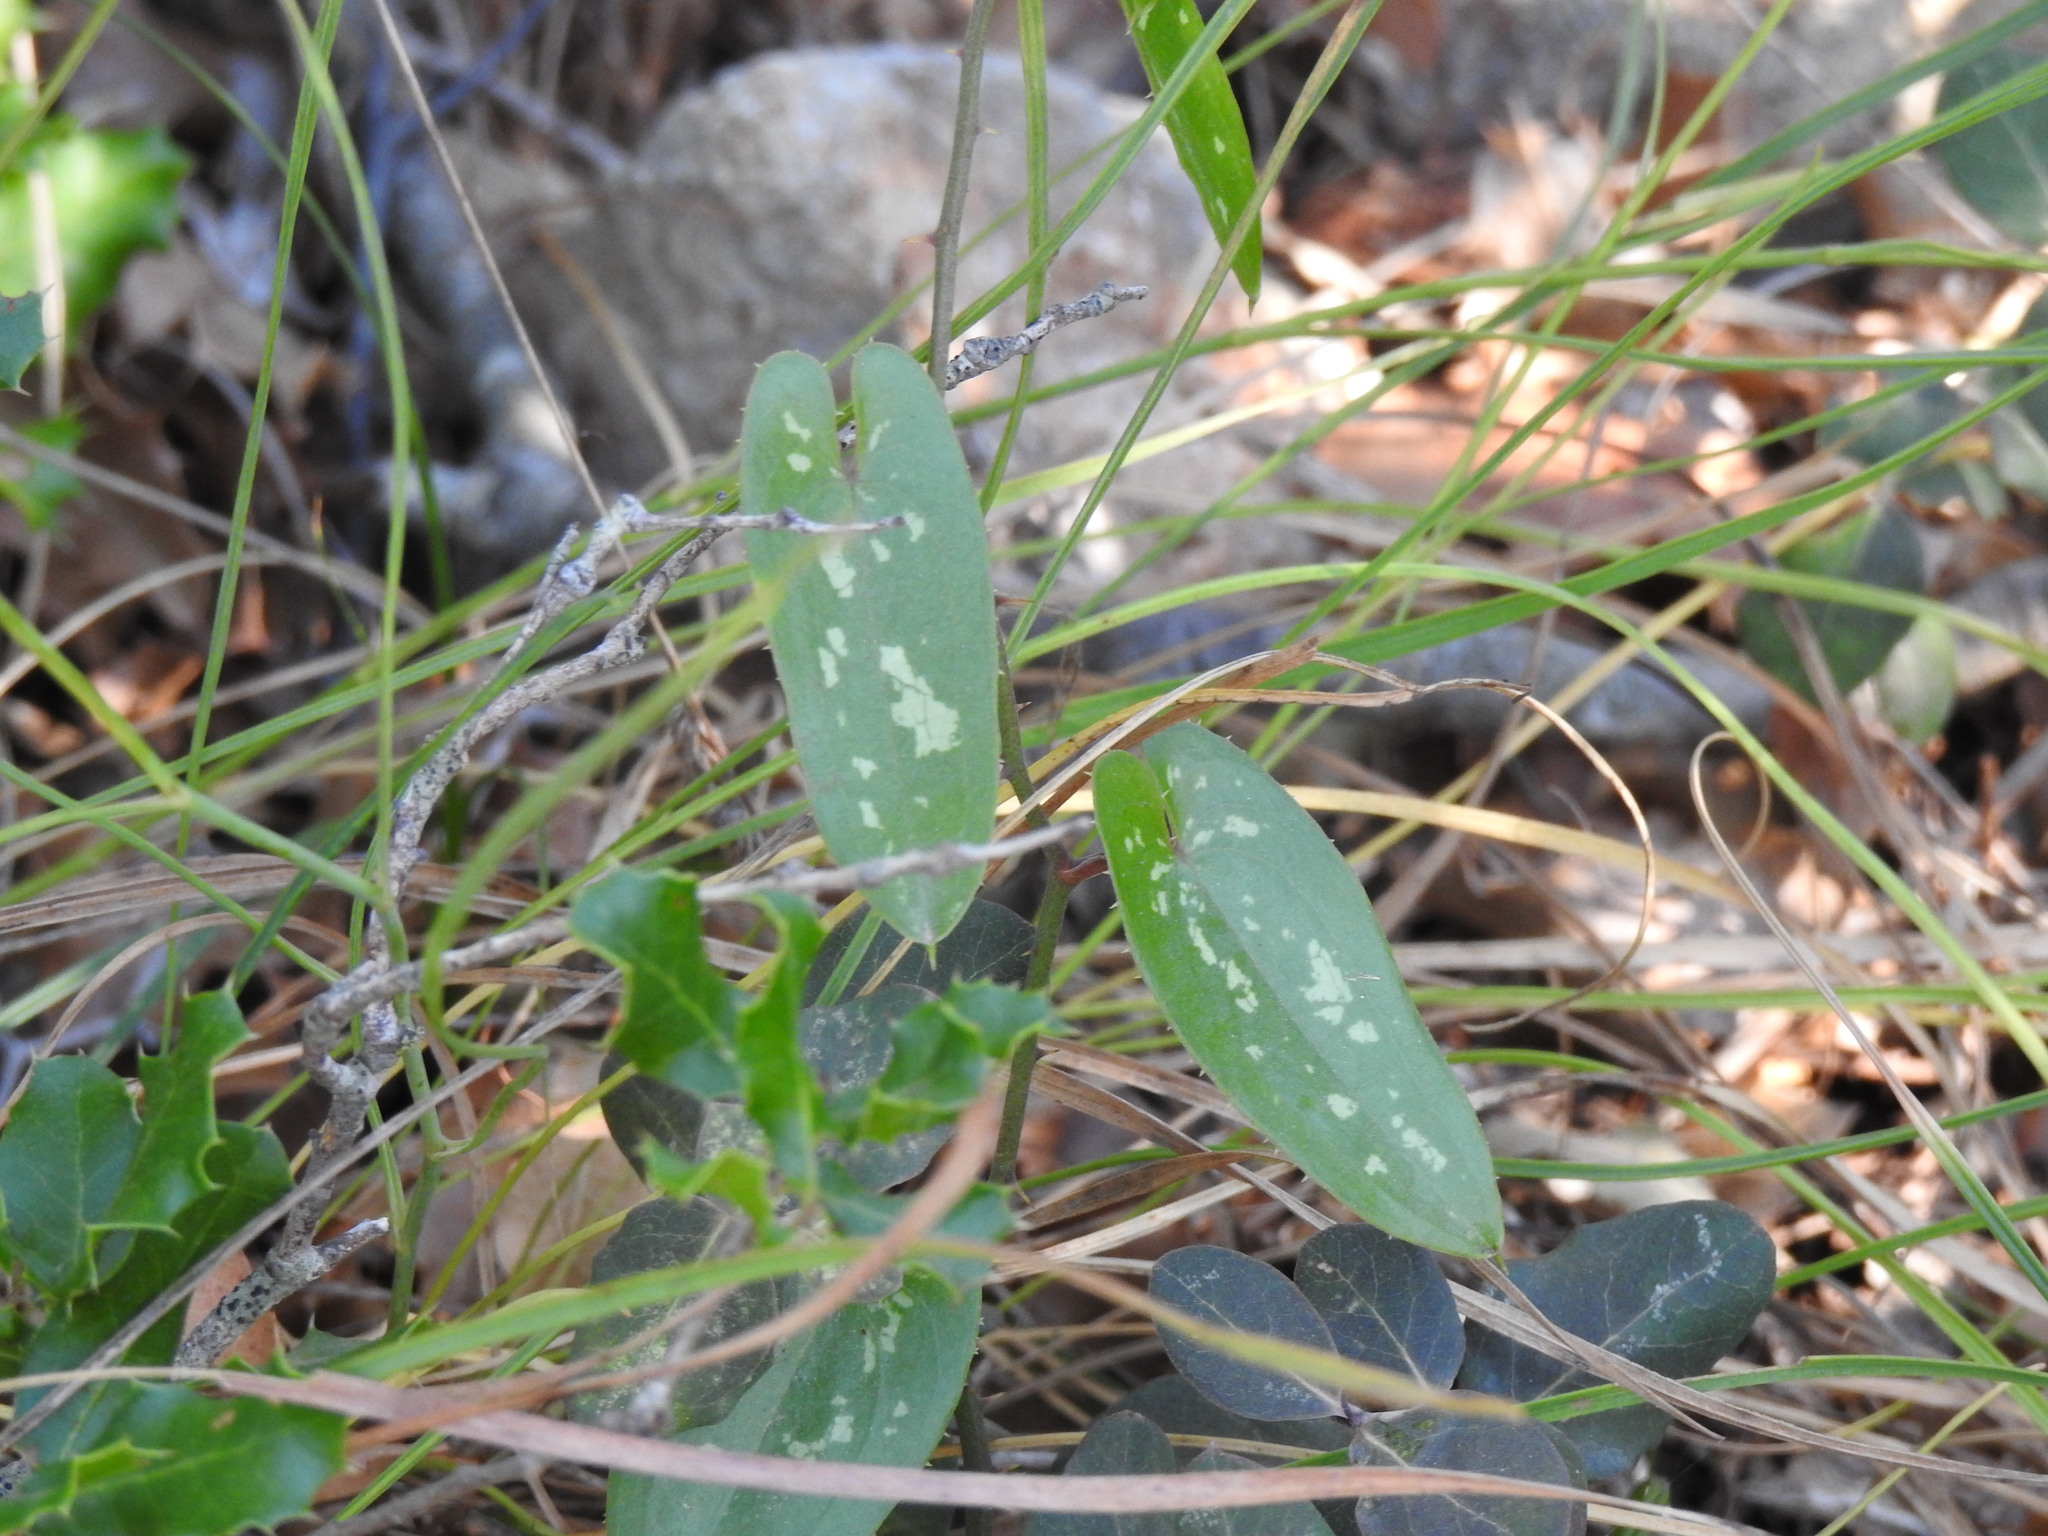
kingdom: Plantae
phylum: Tracheophyta
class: Liliopsida
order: Liliales
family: Smilacaceae
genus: Smilax
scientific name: Smilax aspera
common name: Common smilax
